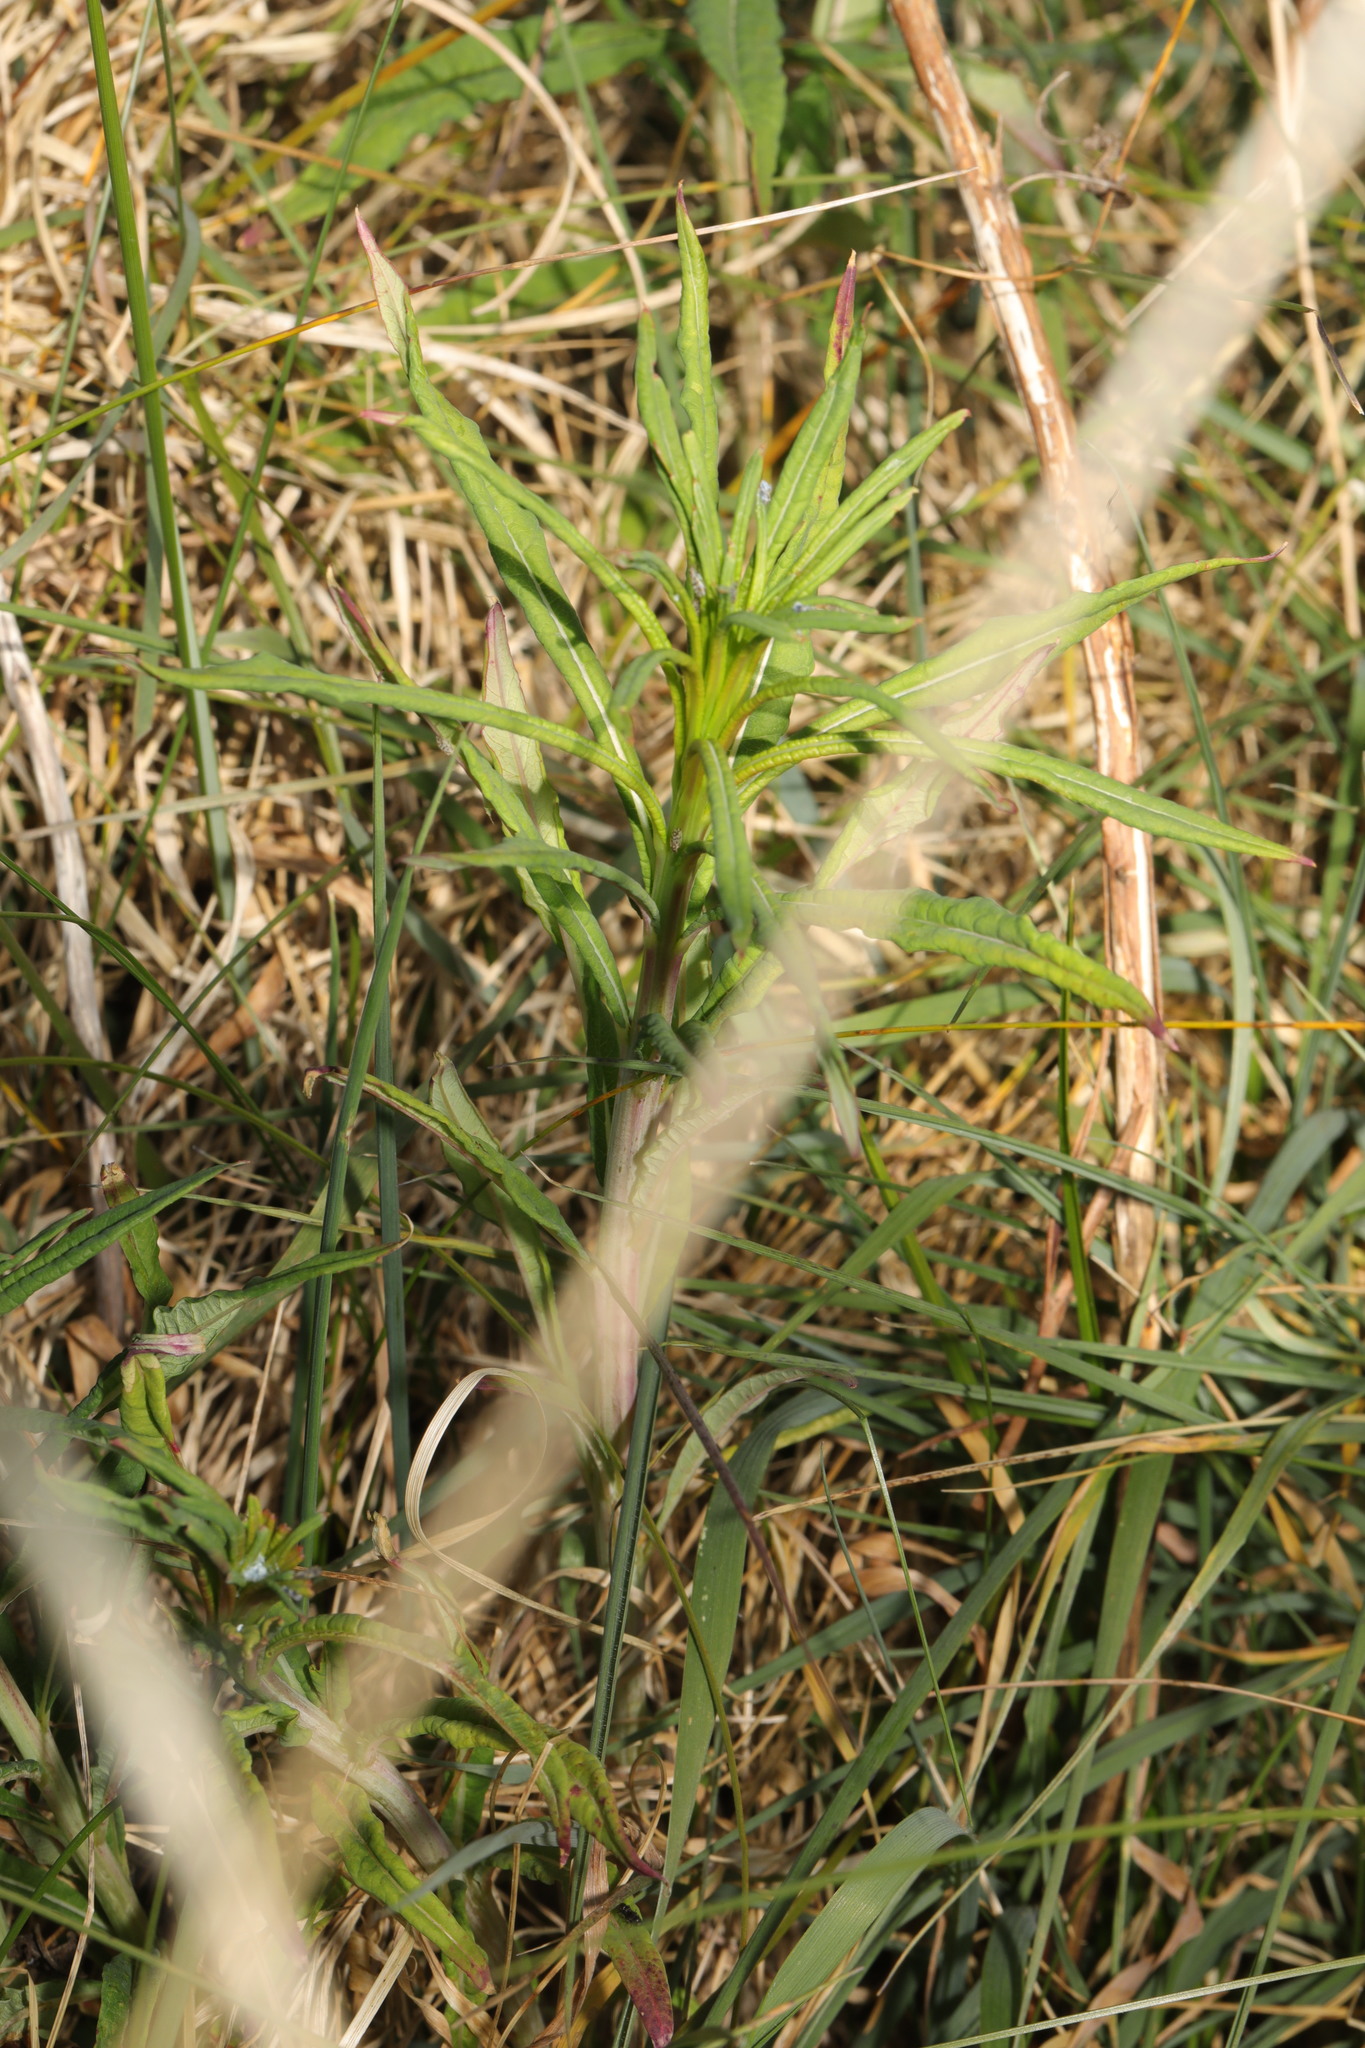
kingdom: Plantae
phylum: Tracheophyta
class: Magnoliopsida
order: Myrtales
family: Onagraceae
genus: Chamaenerion
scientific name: Chamaenerion angustifolium
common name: Fireweed
